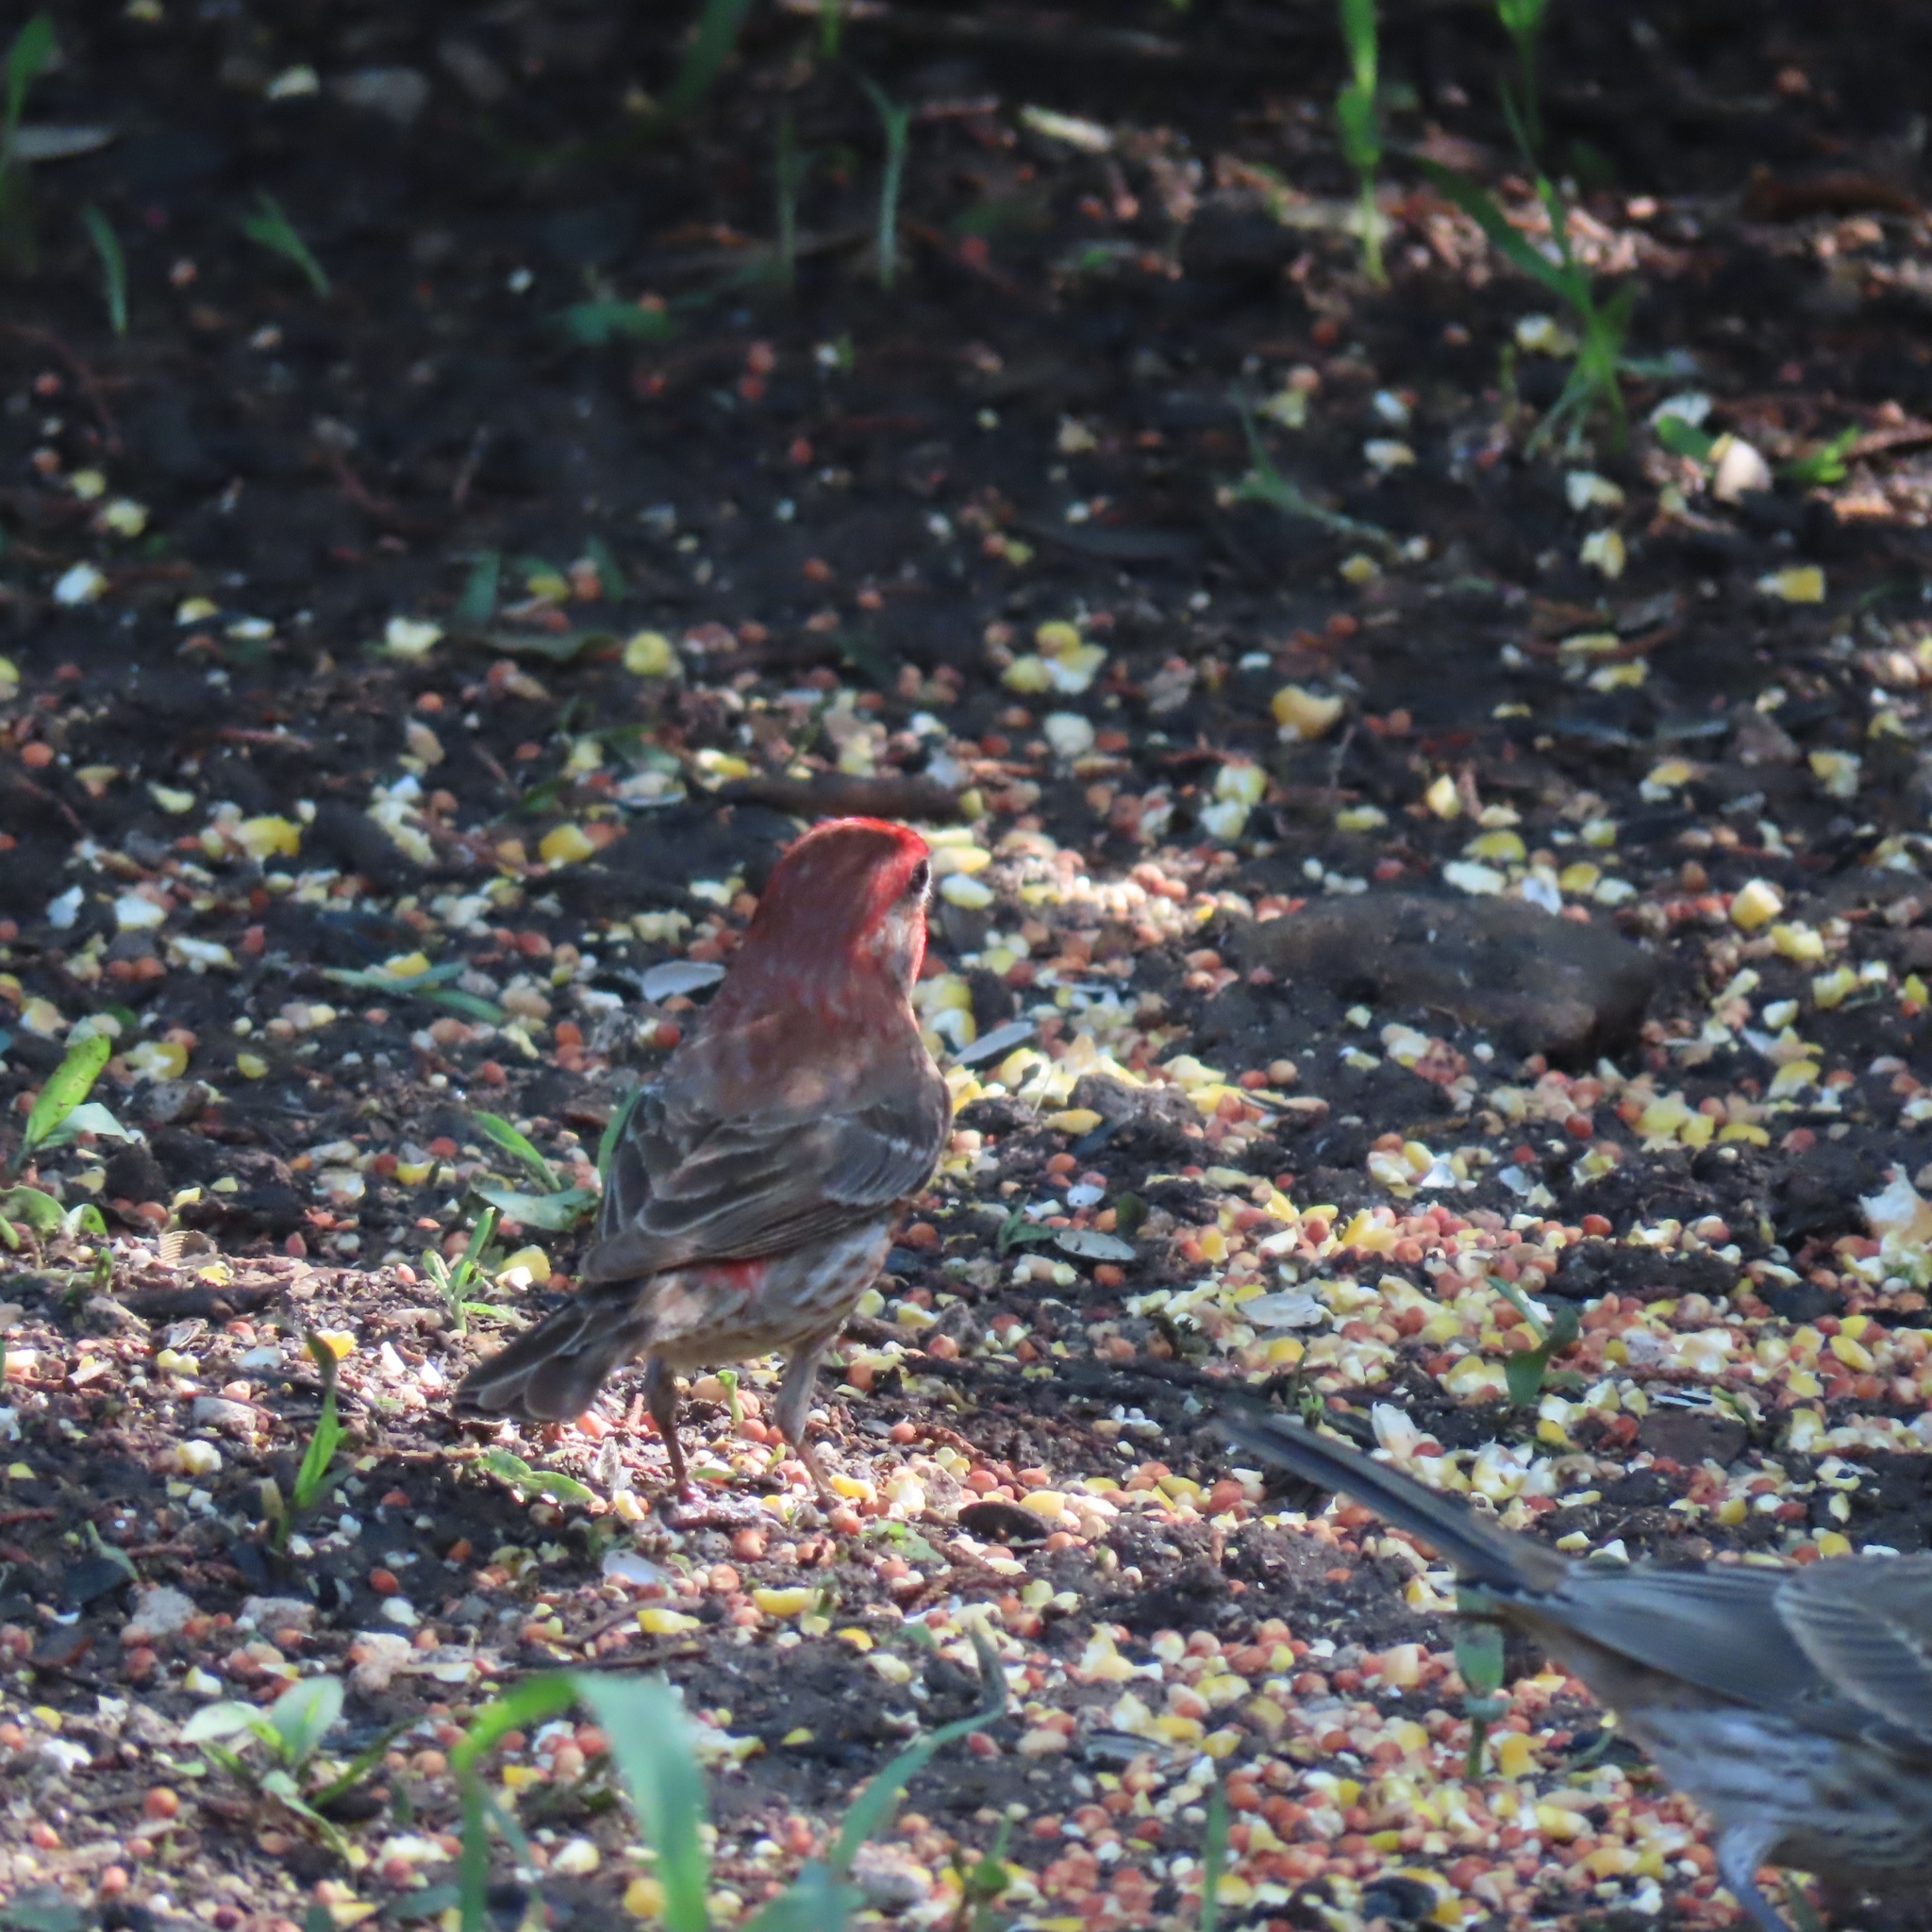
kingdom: Animalia
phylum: Chordata
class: Aves
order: Passeriformes
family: Fringillidae
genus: Haemorhous
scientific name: Haemorhous mexicanus
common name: House finch
